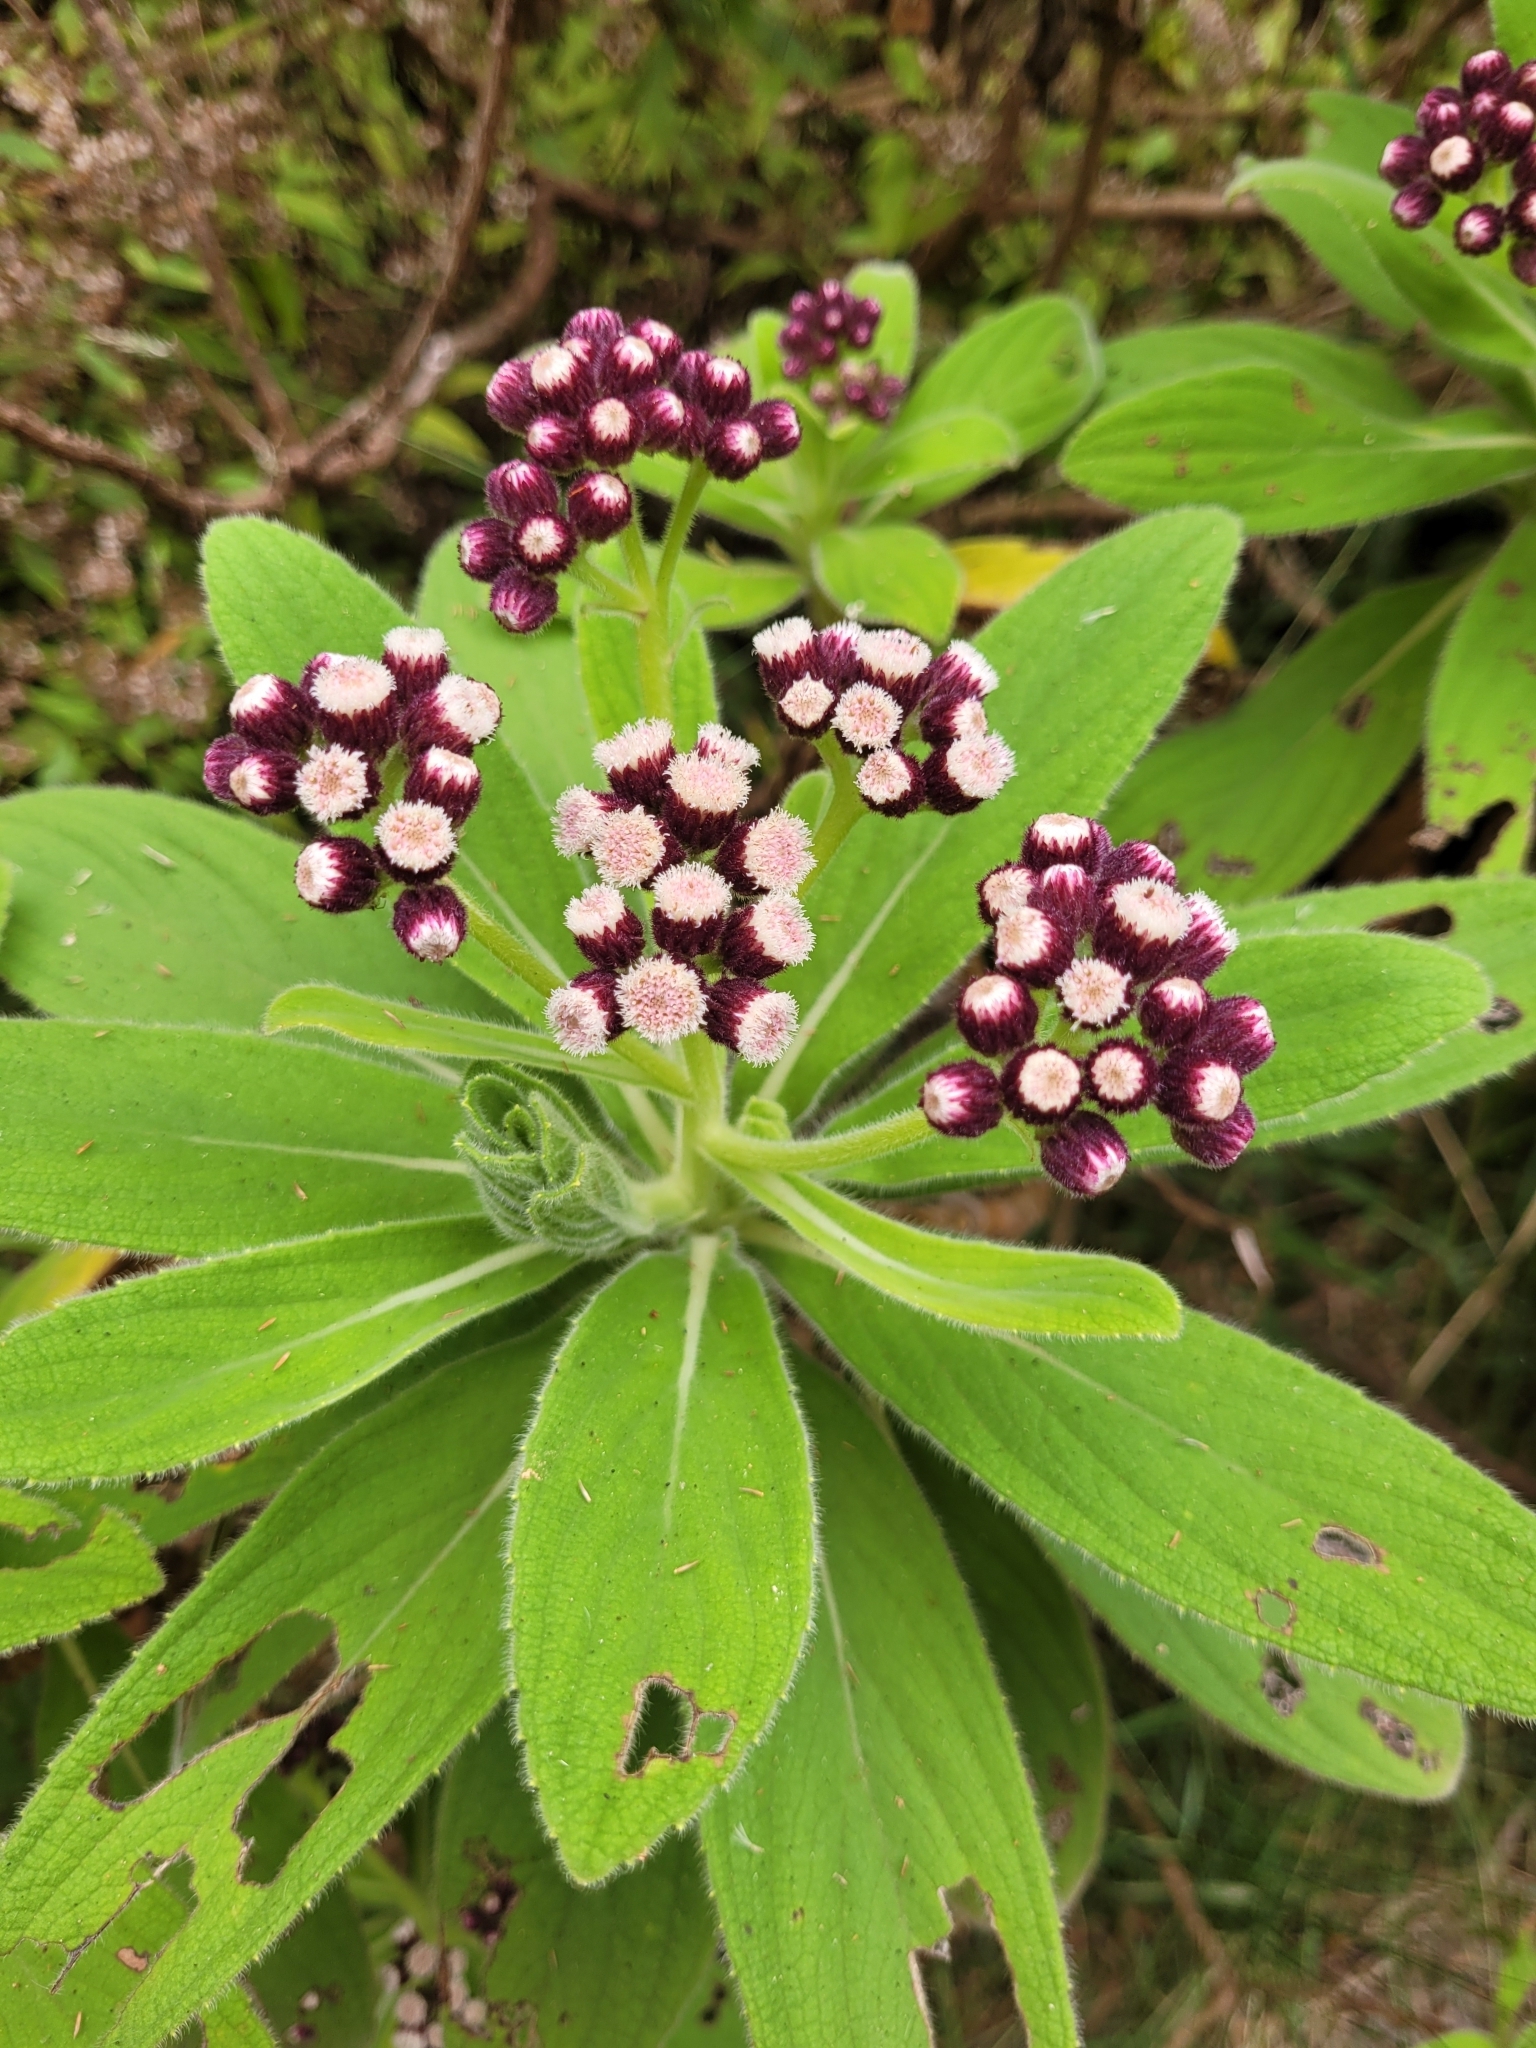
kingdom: Plantae
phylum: Tracheophyta
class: Magnoliopsida
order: Asterales
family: Asteraceae
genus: Psiadia
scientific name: Psiadia anchusifolia
